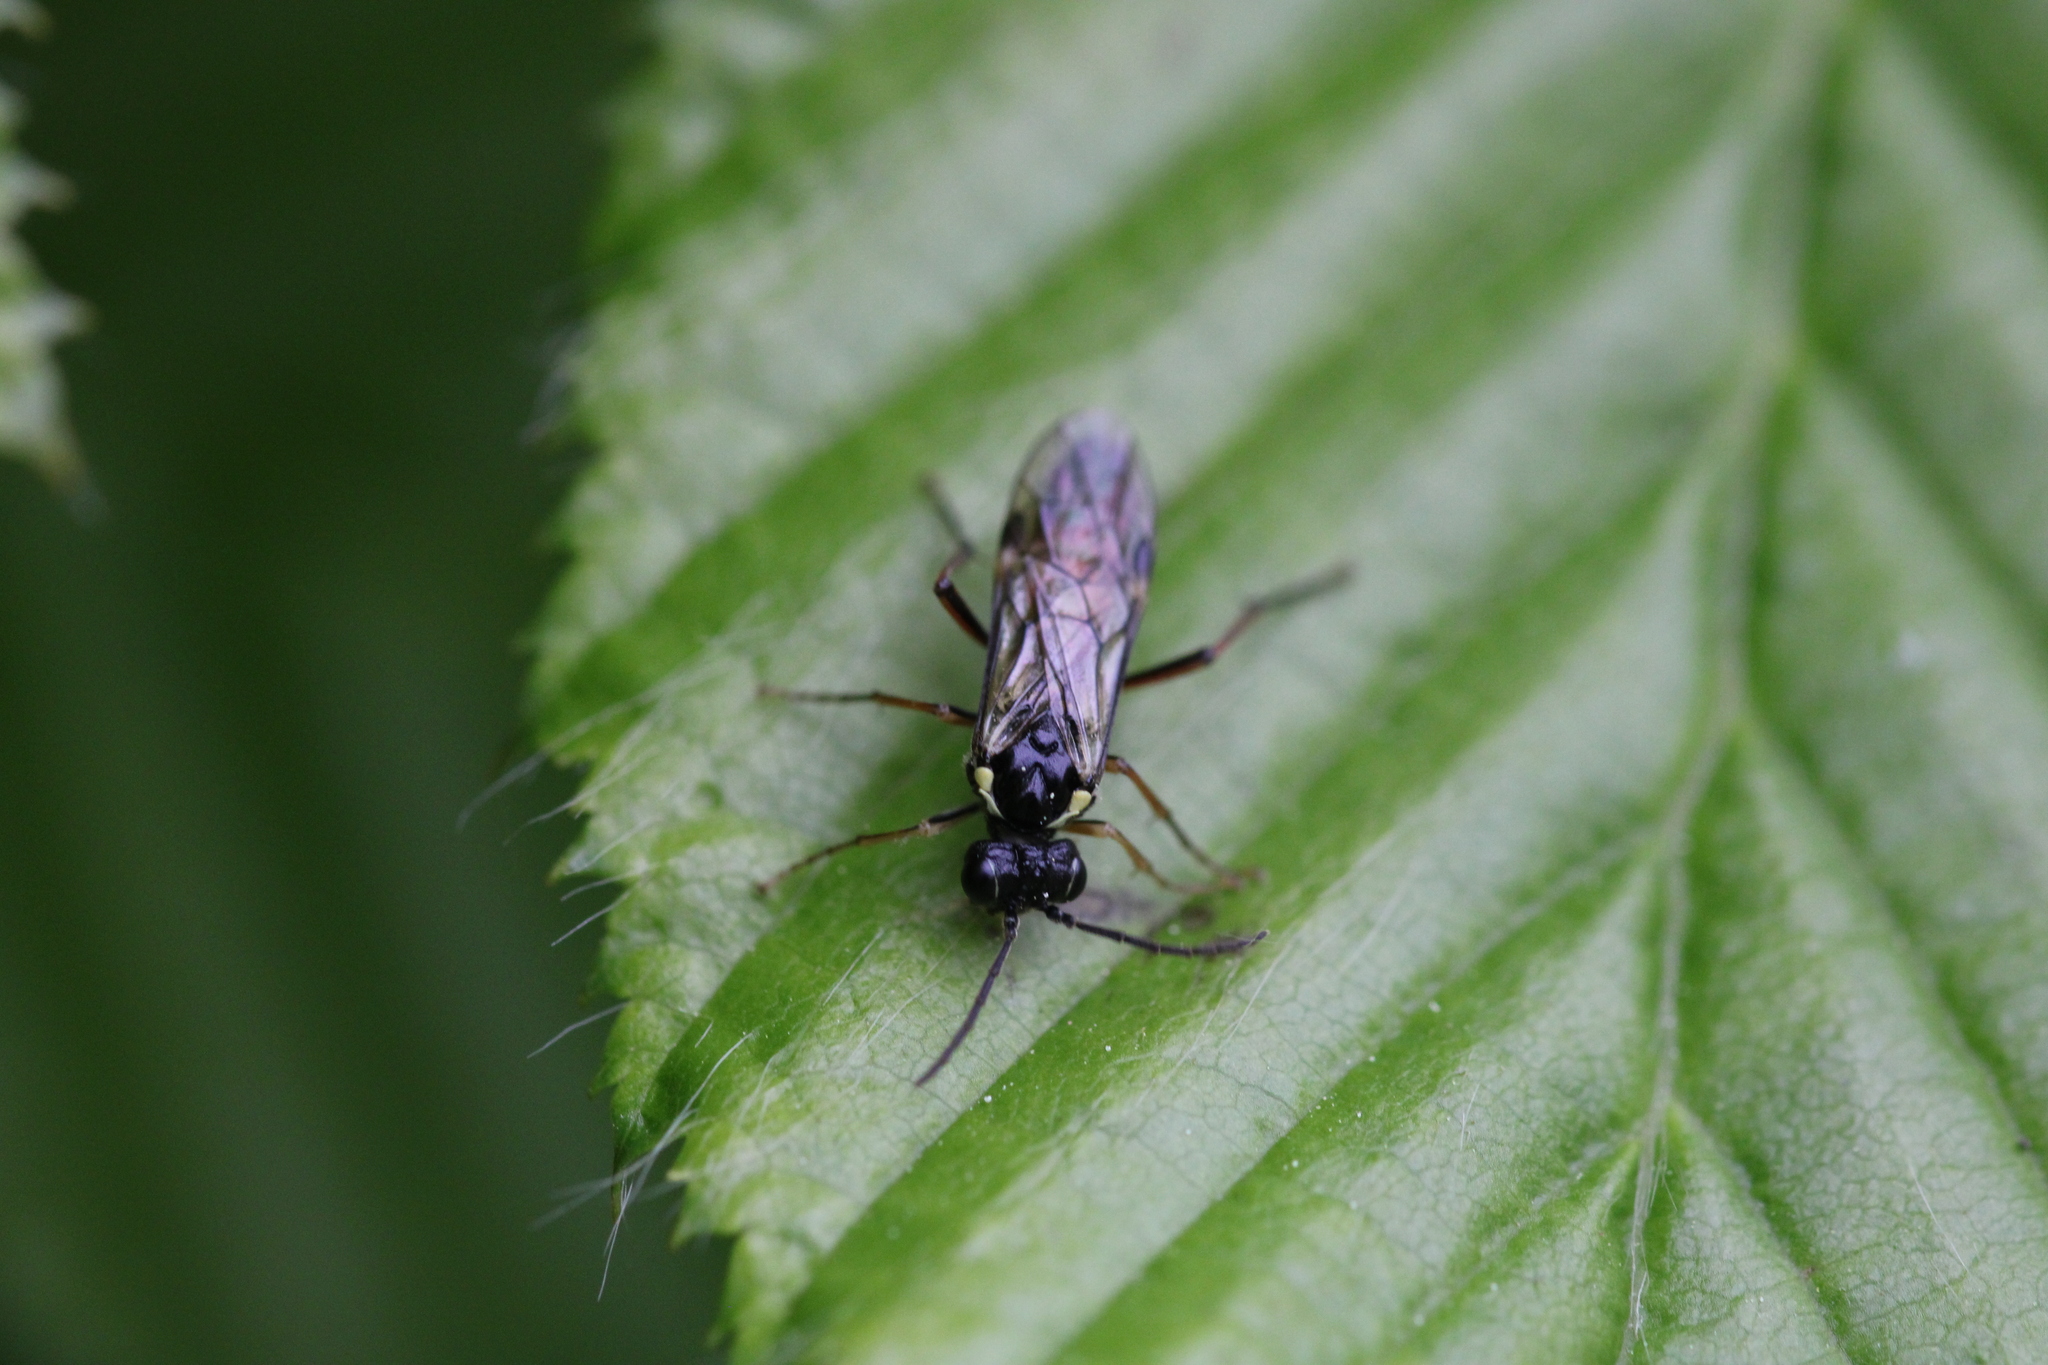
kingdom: Animalia
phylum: Arthropoda
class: Insecta
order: Hymenoptera
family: Tenthredinidae
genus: Aglaostigma
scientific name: Aglaostigma aucupariae
